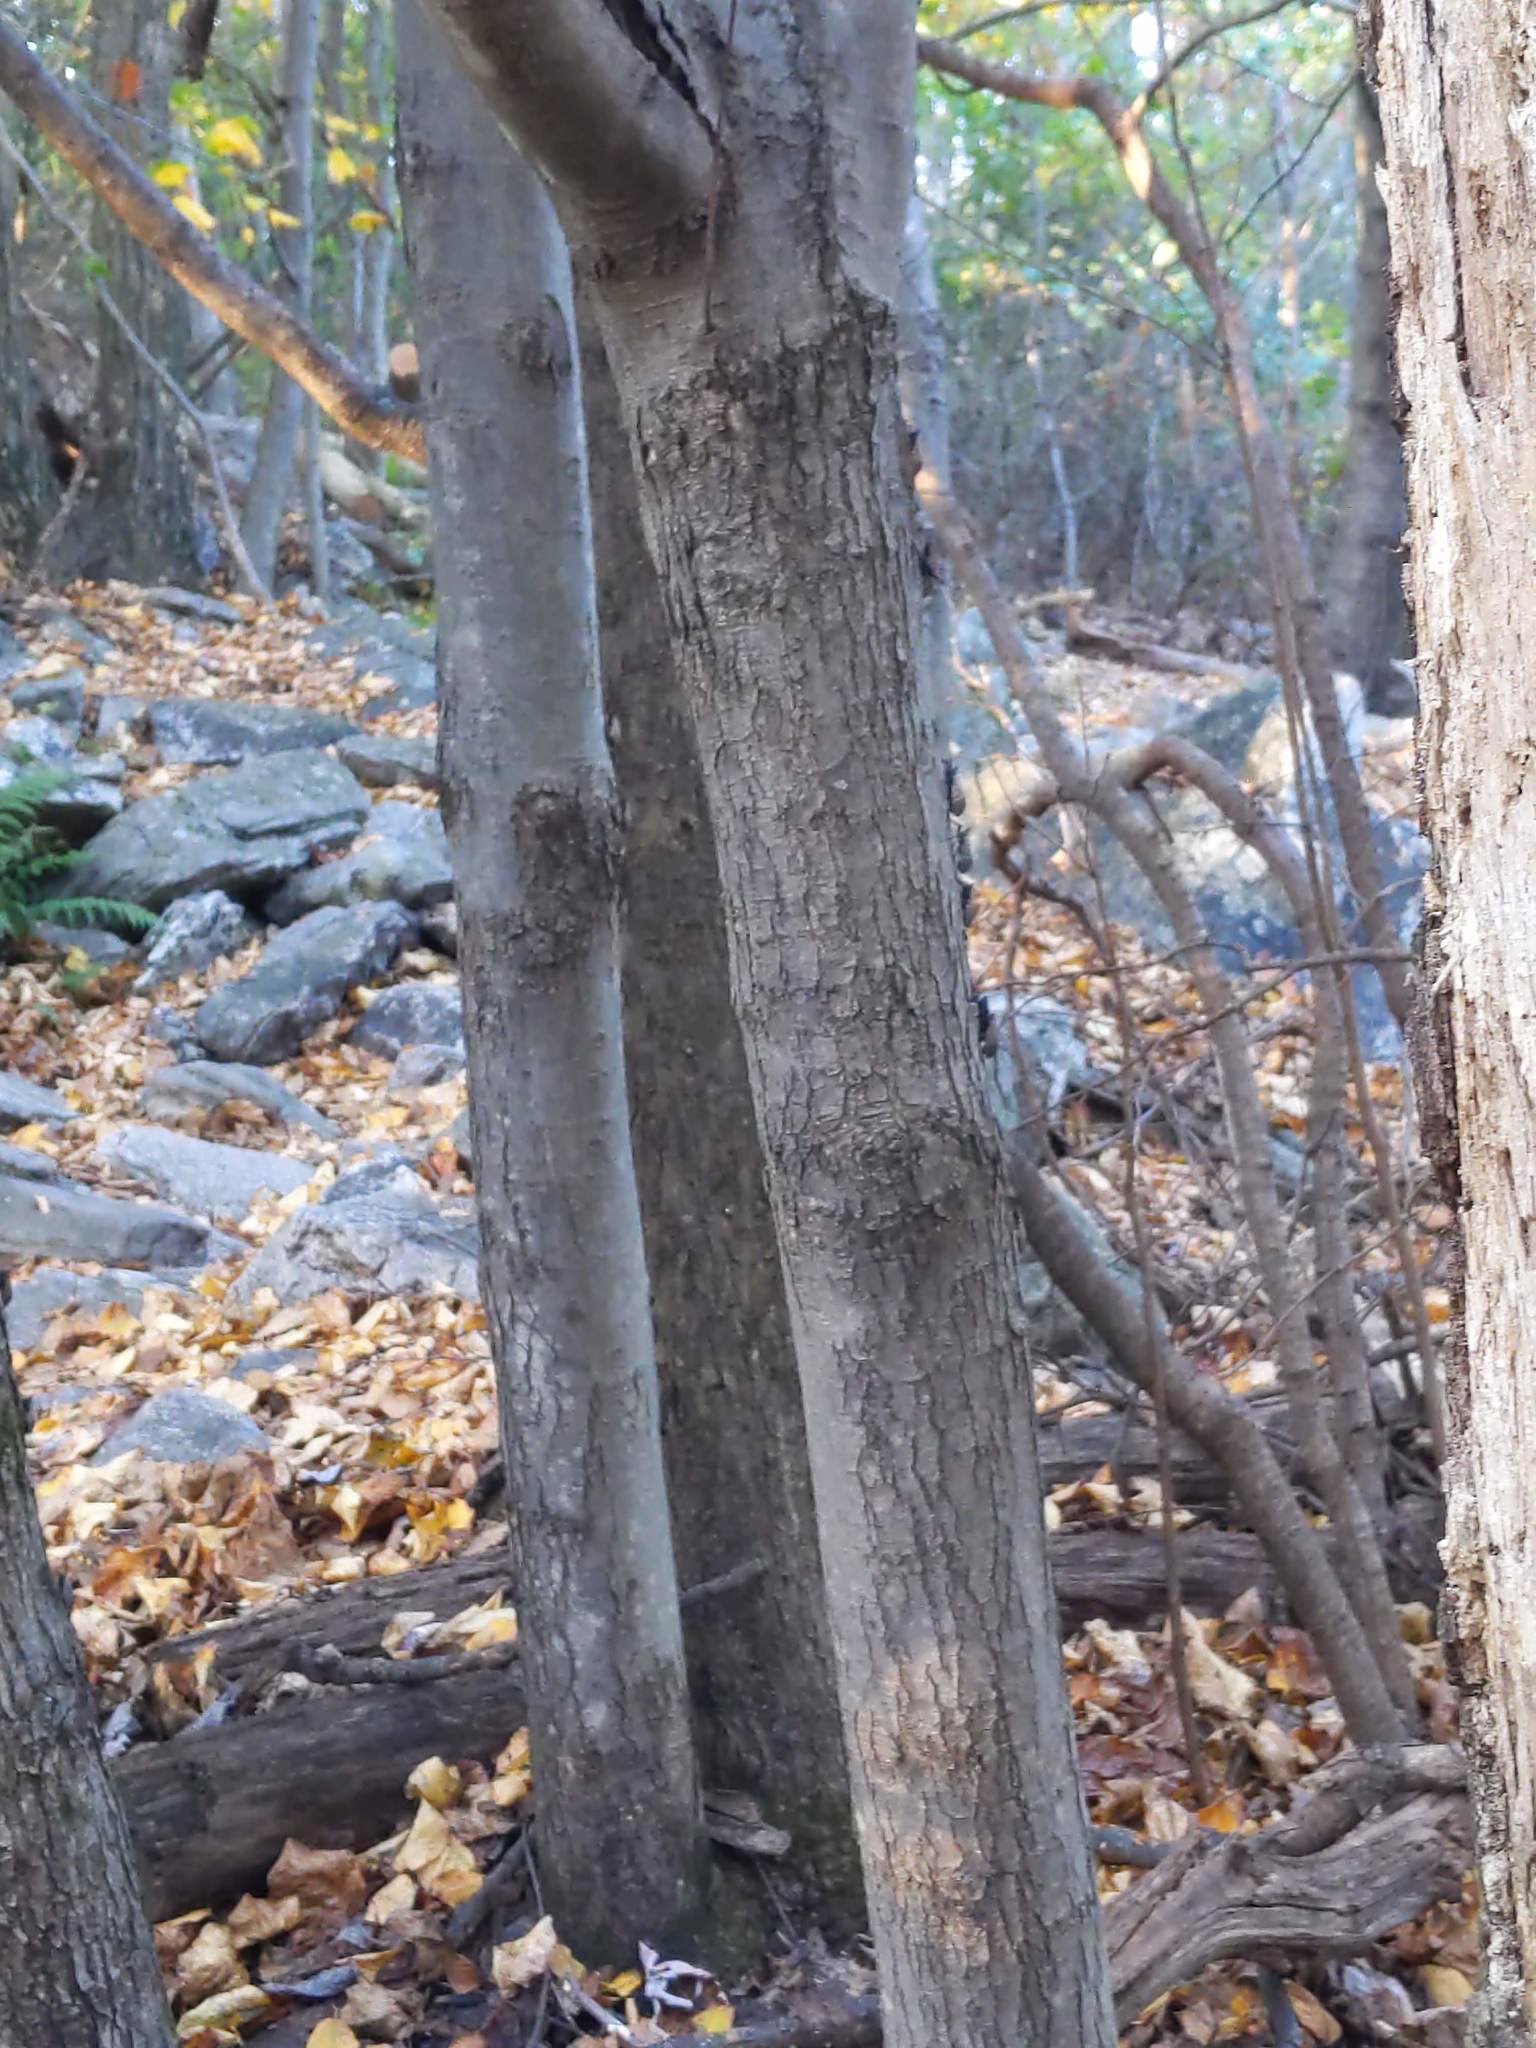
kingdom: Plantae
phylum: Tracheophyta
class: Magnoliopsida
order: Sapindales
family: Sapindaceae
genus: Acer
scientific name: Acer rubrum
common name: Red maple
